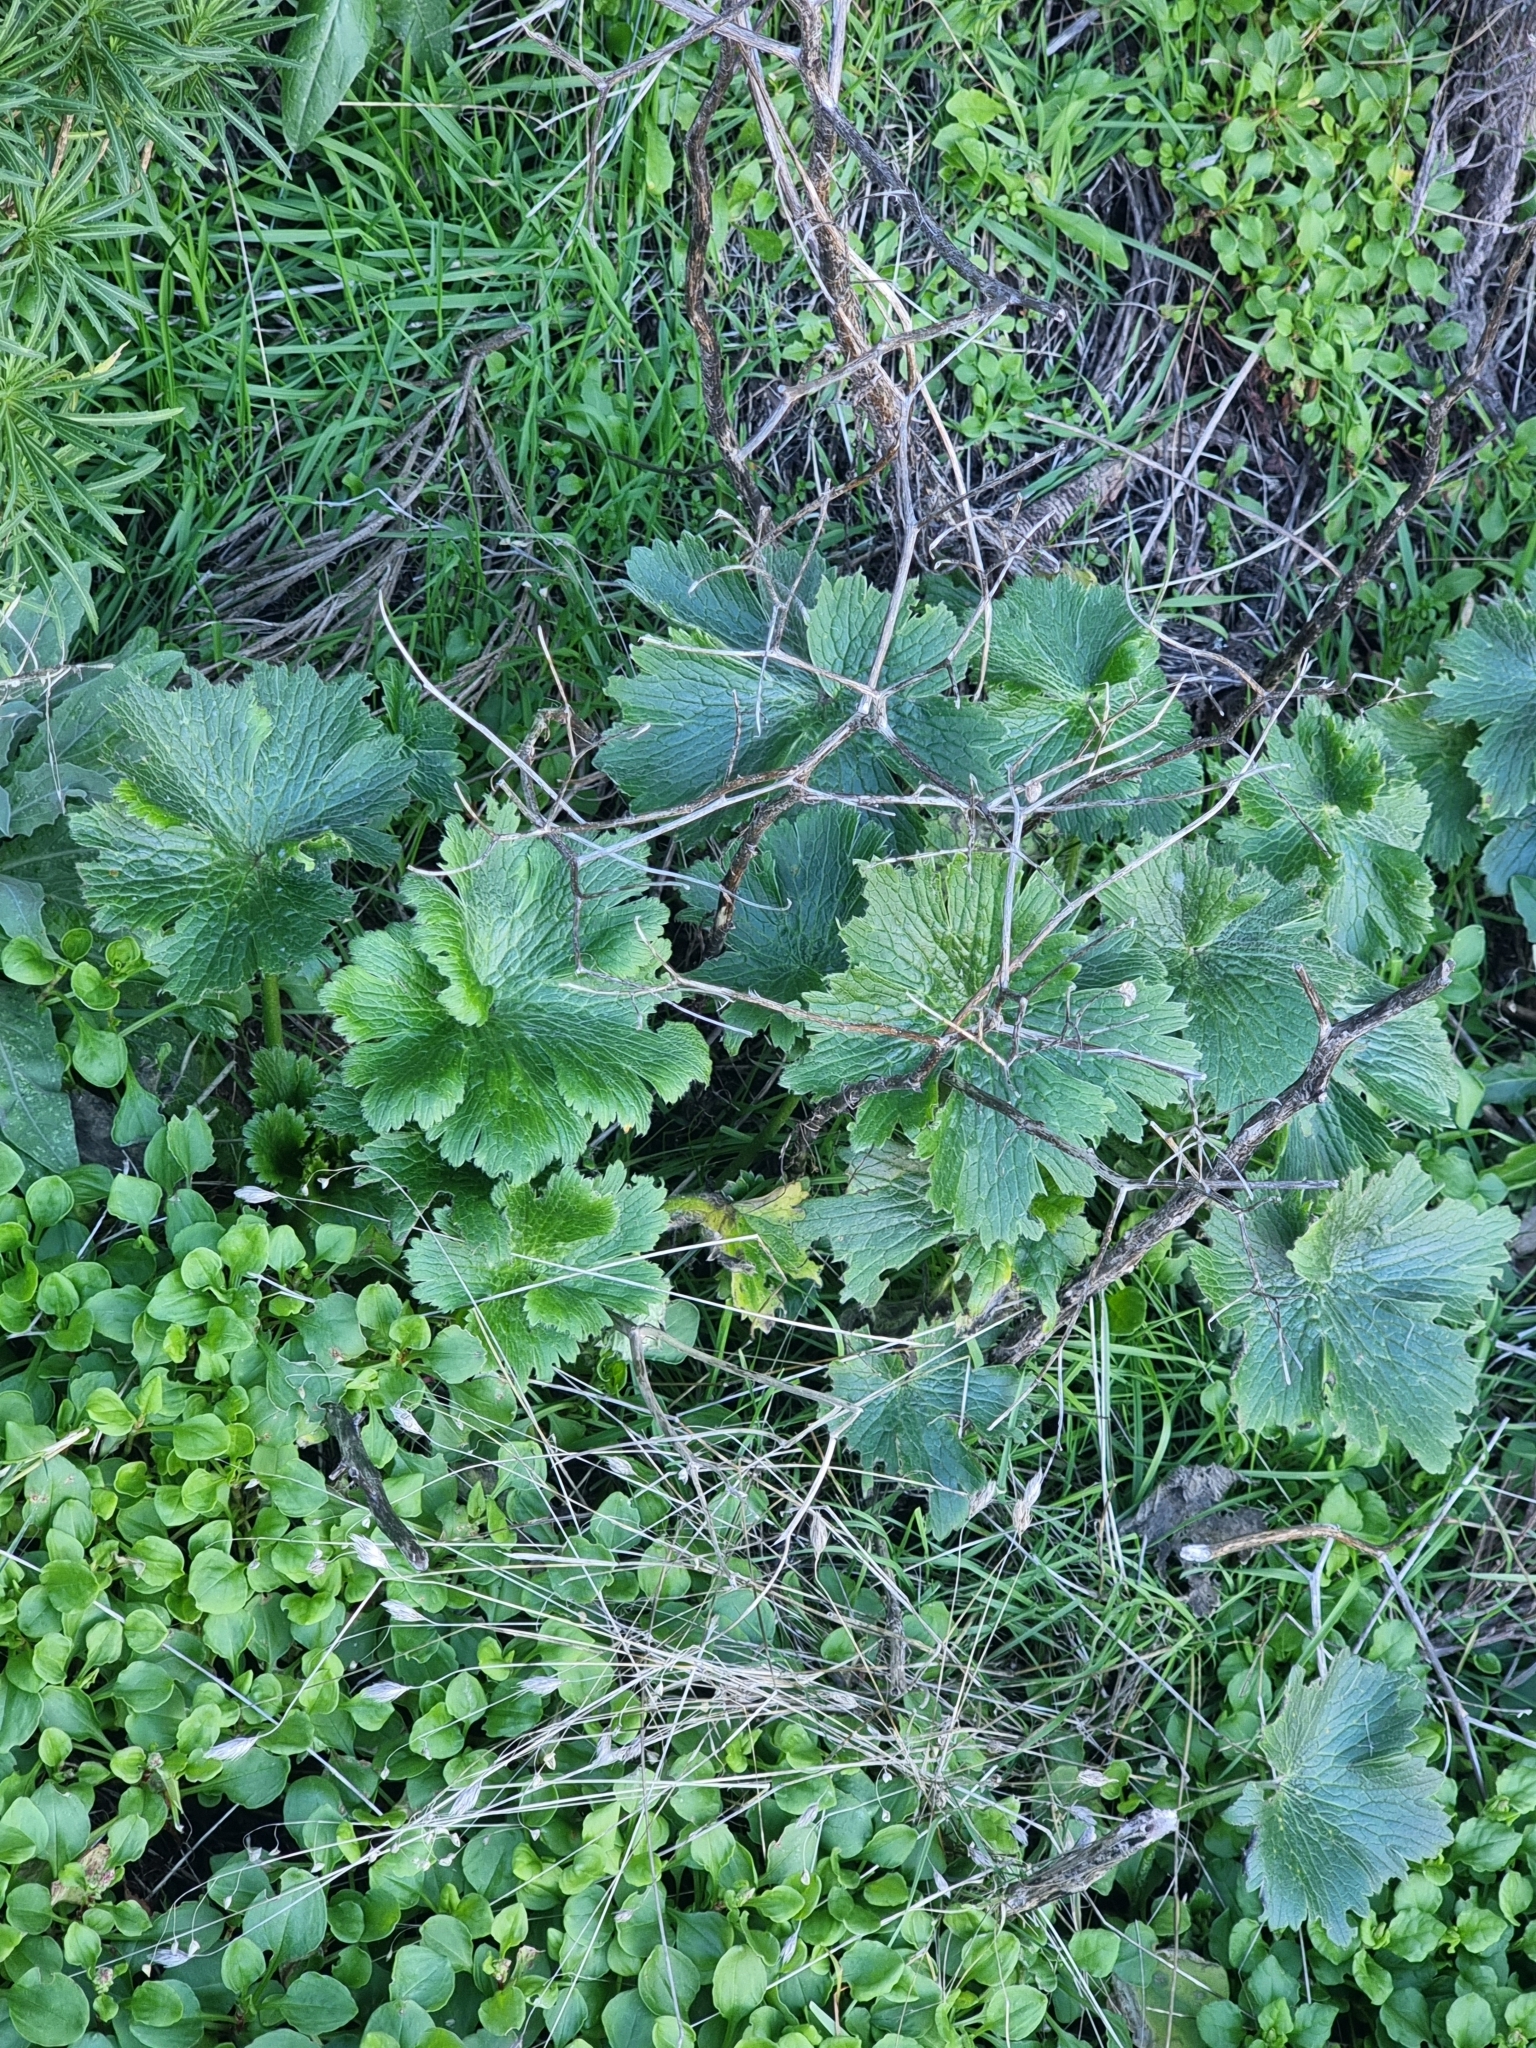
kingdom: Plantae
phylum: Tracheophyta
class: Magnoliopsida
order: Ranunculales
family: Ranunculaceae
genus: Ranunculus
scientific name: Ranunculus cortusifolius
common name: Azores buttercup
